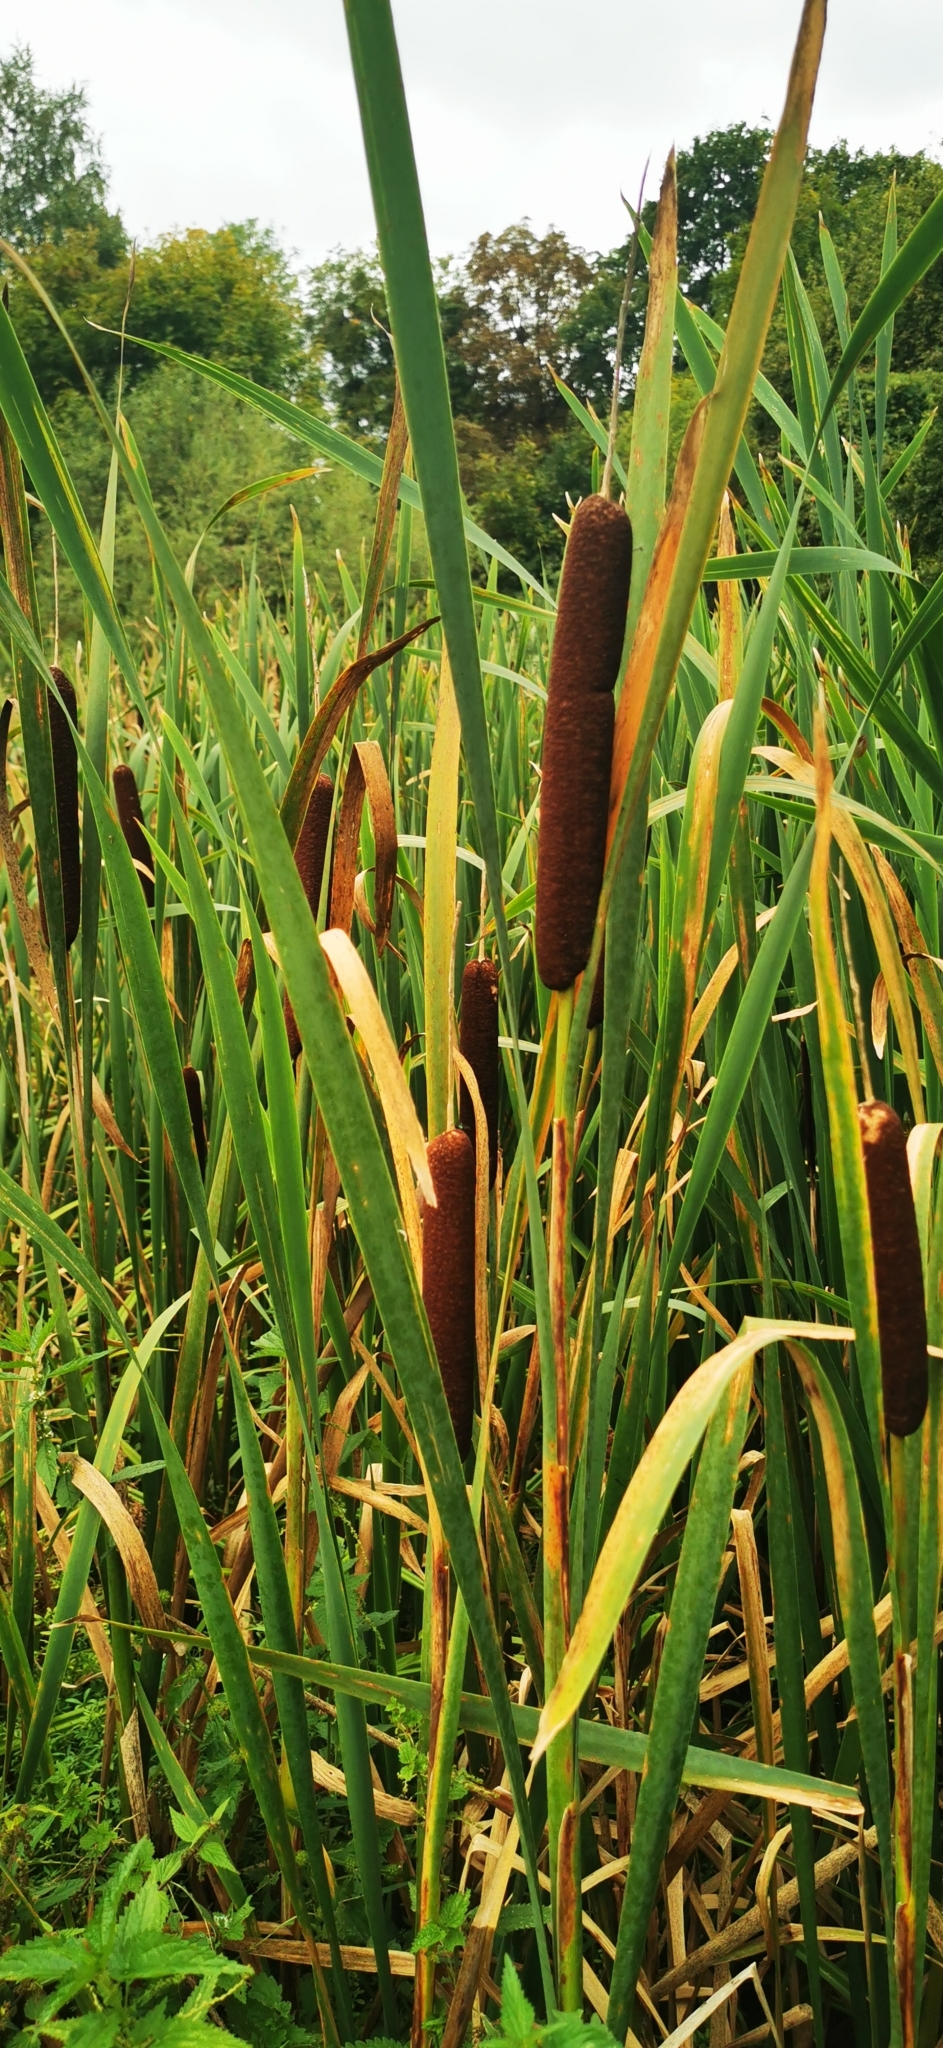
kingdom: Plantae
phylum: Tracheophyta
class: Liliopsida
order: Poales
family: Typhaceae
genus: Typha
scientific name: Typha latifolia
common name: Broadleaf cattail
